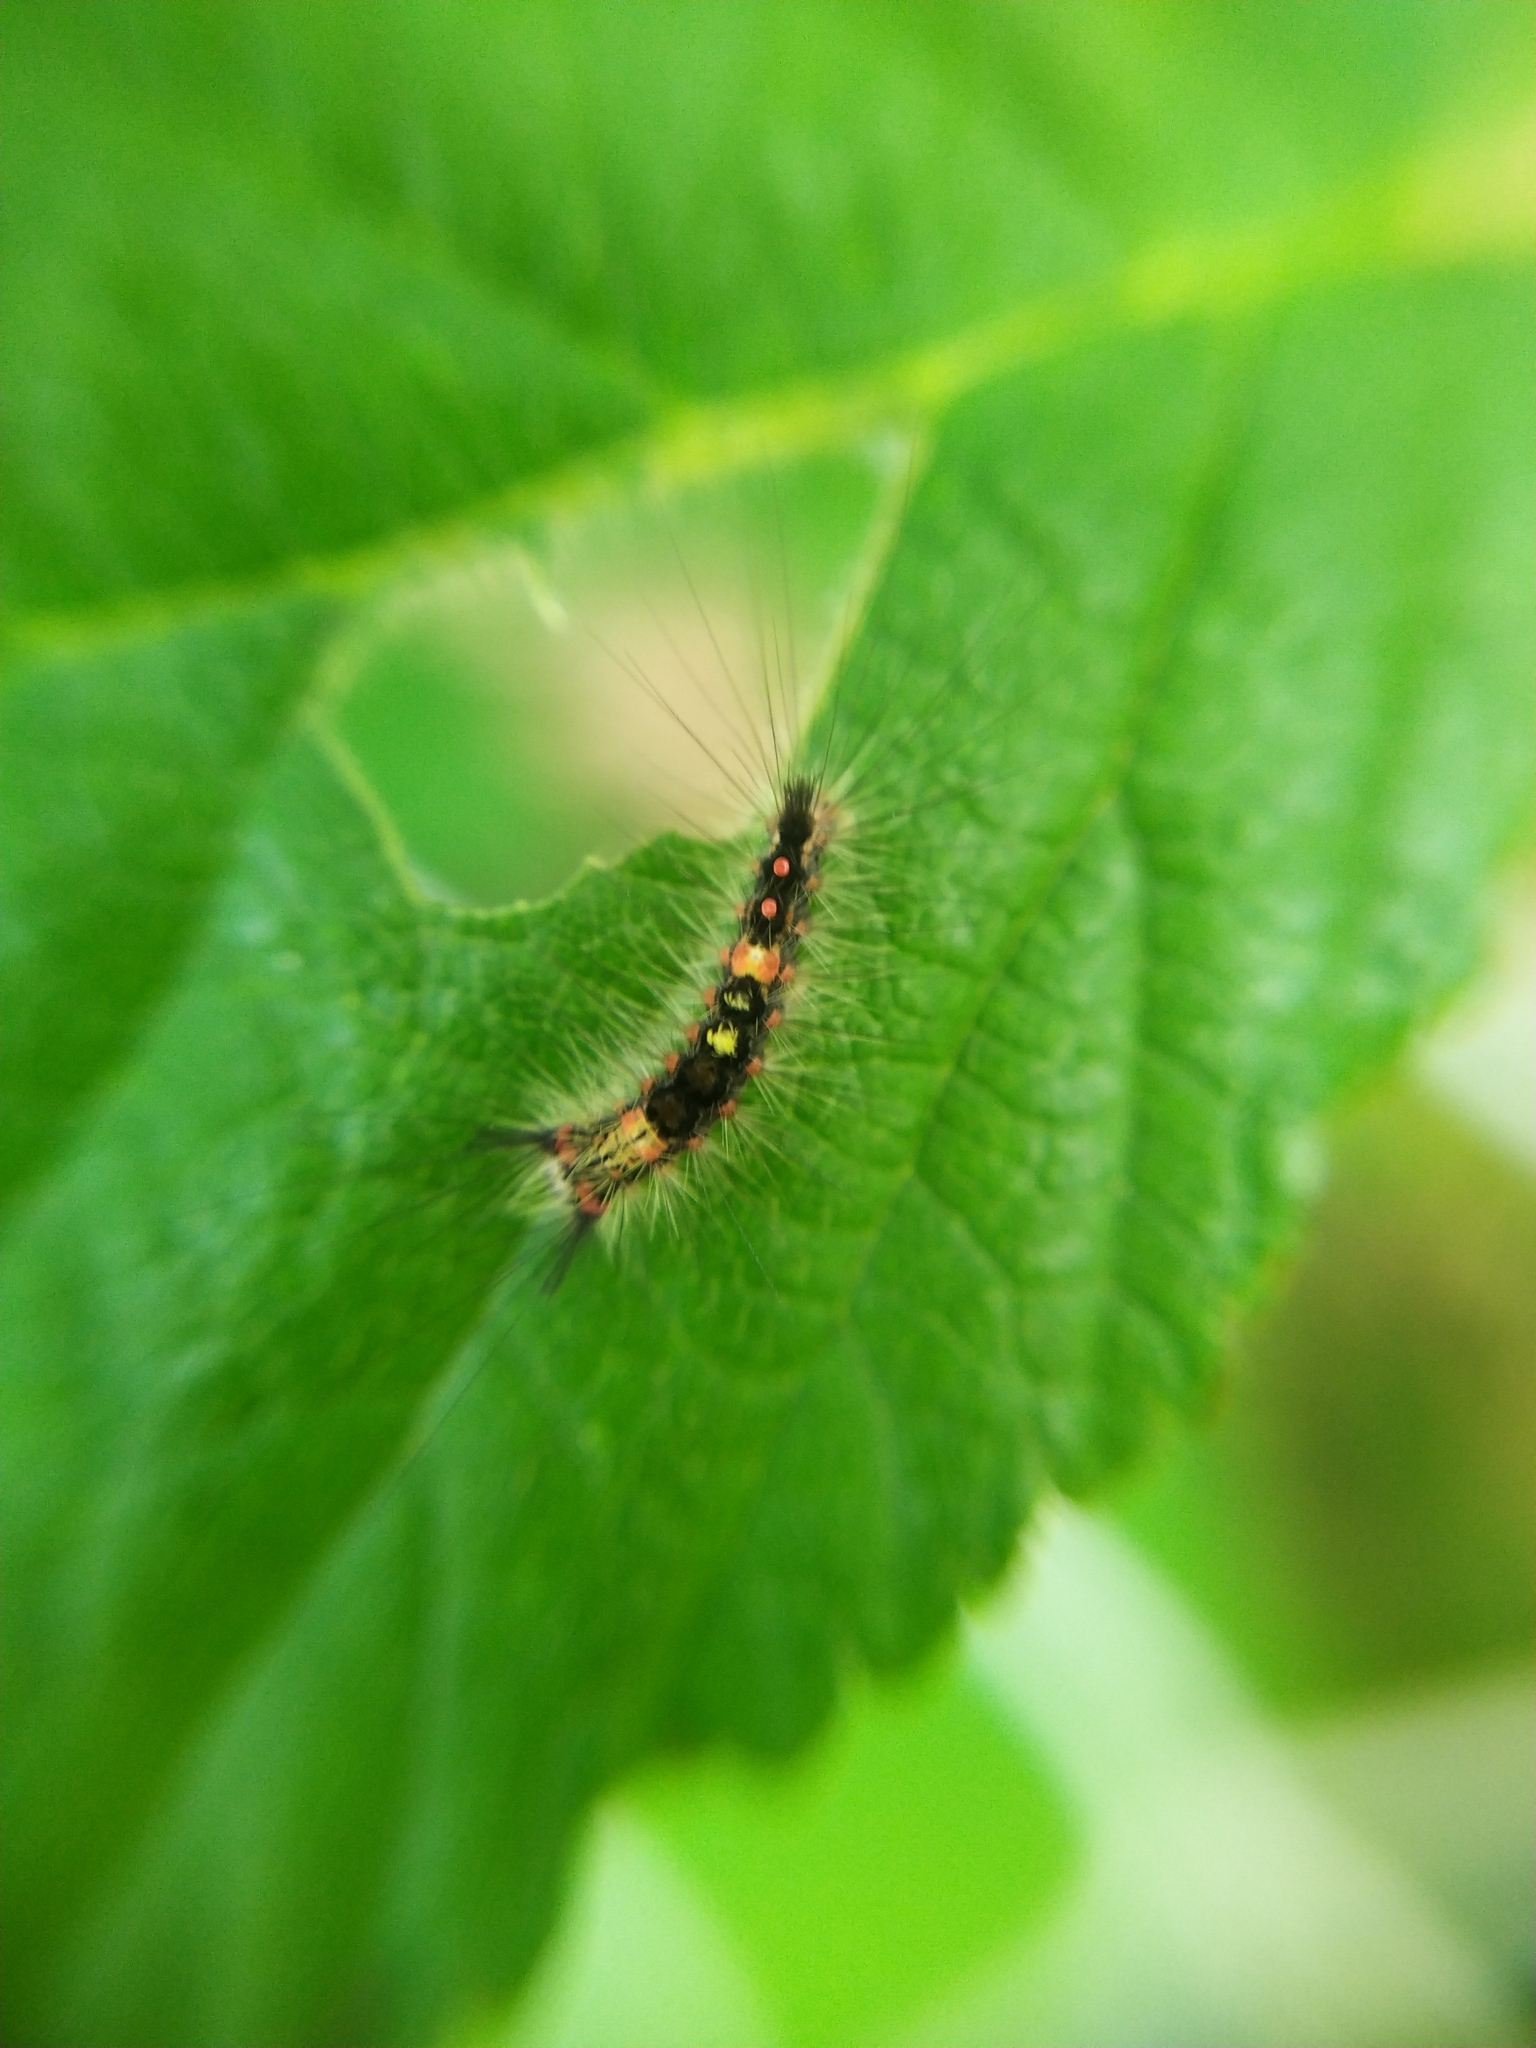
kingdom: Animalia
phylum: Arthropoda
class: Insecta
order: Lepidoptera
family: Erebidae
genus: Orgyia
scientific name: Orgyia antiqua
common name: Vapourer
